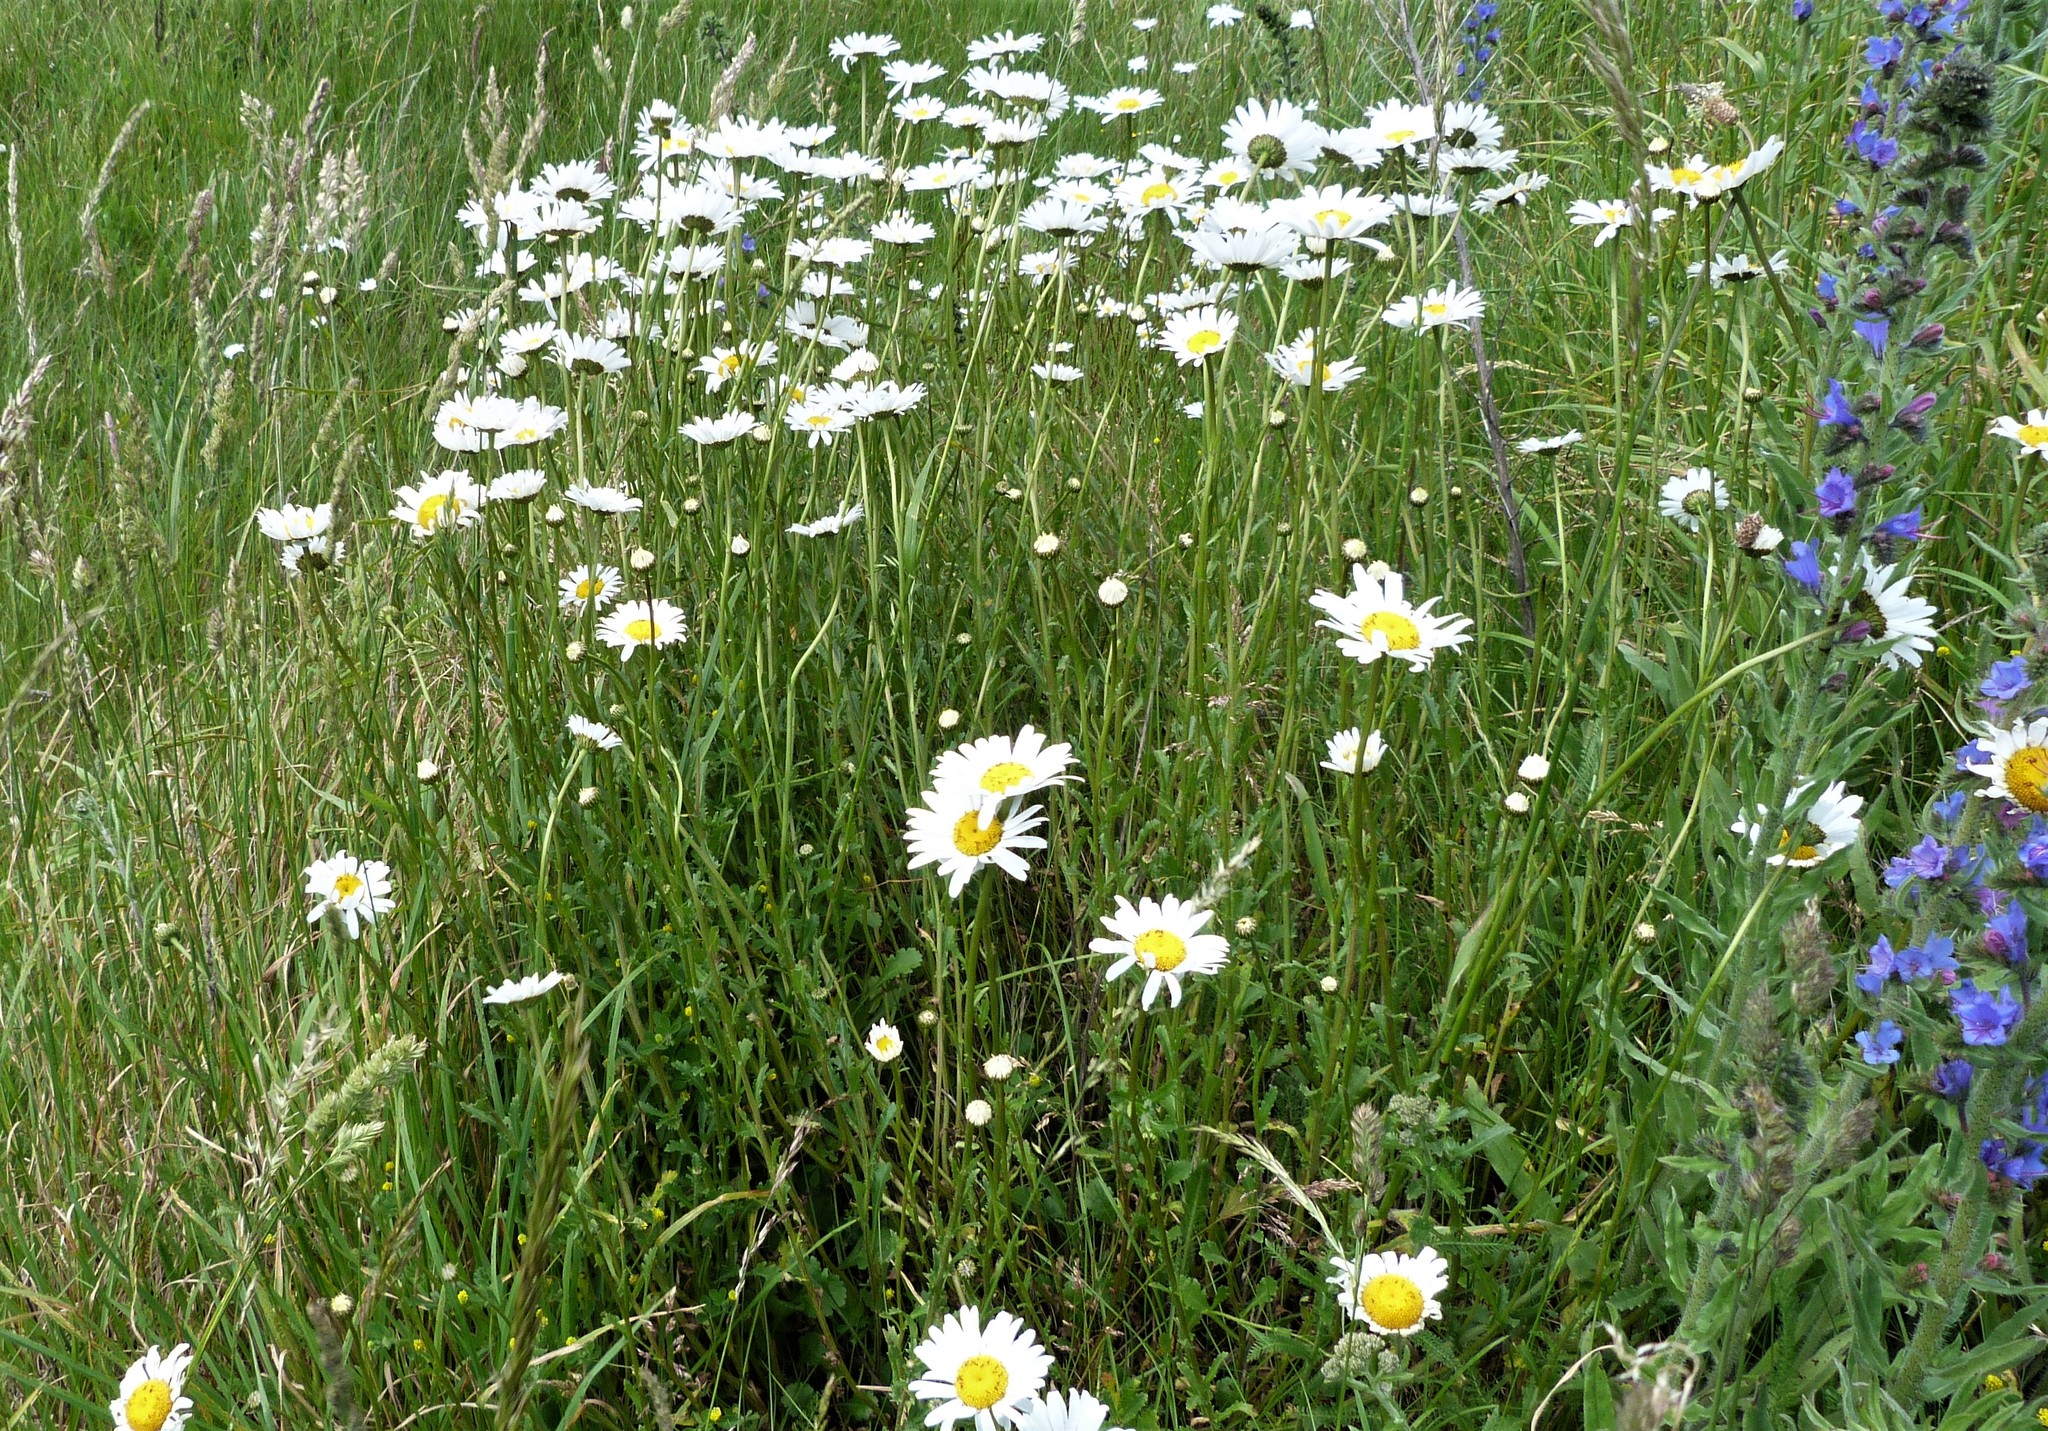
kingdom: Plantae
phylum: Tracheophyta
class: Magnoliopsida
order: Asterales
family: Asteraceae
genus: Leucanthemum
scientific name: Leucanthemum vulgare
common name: Oxeye daisy
